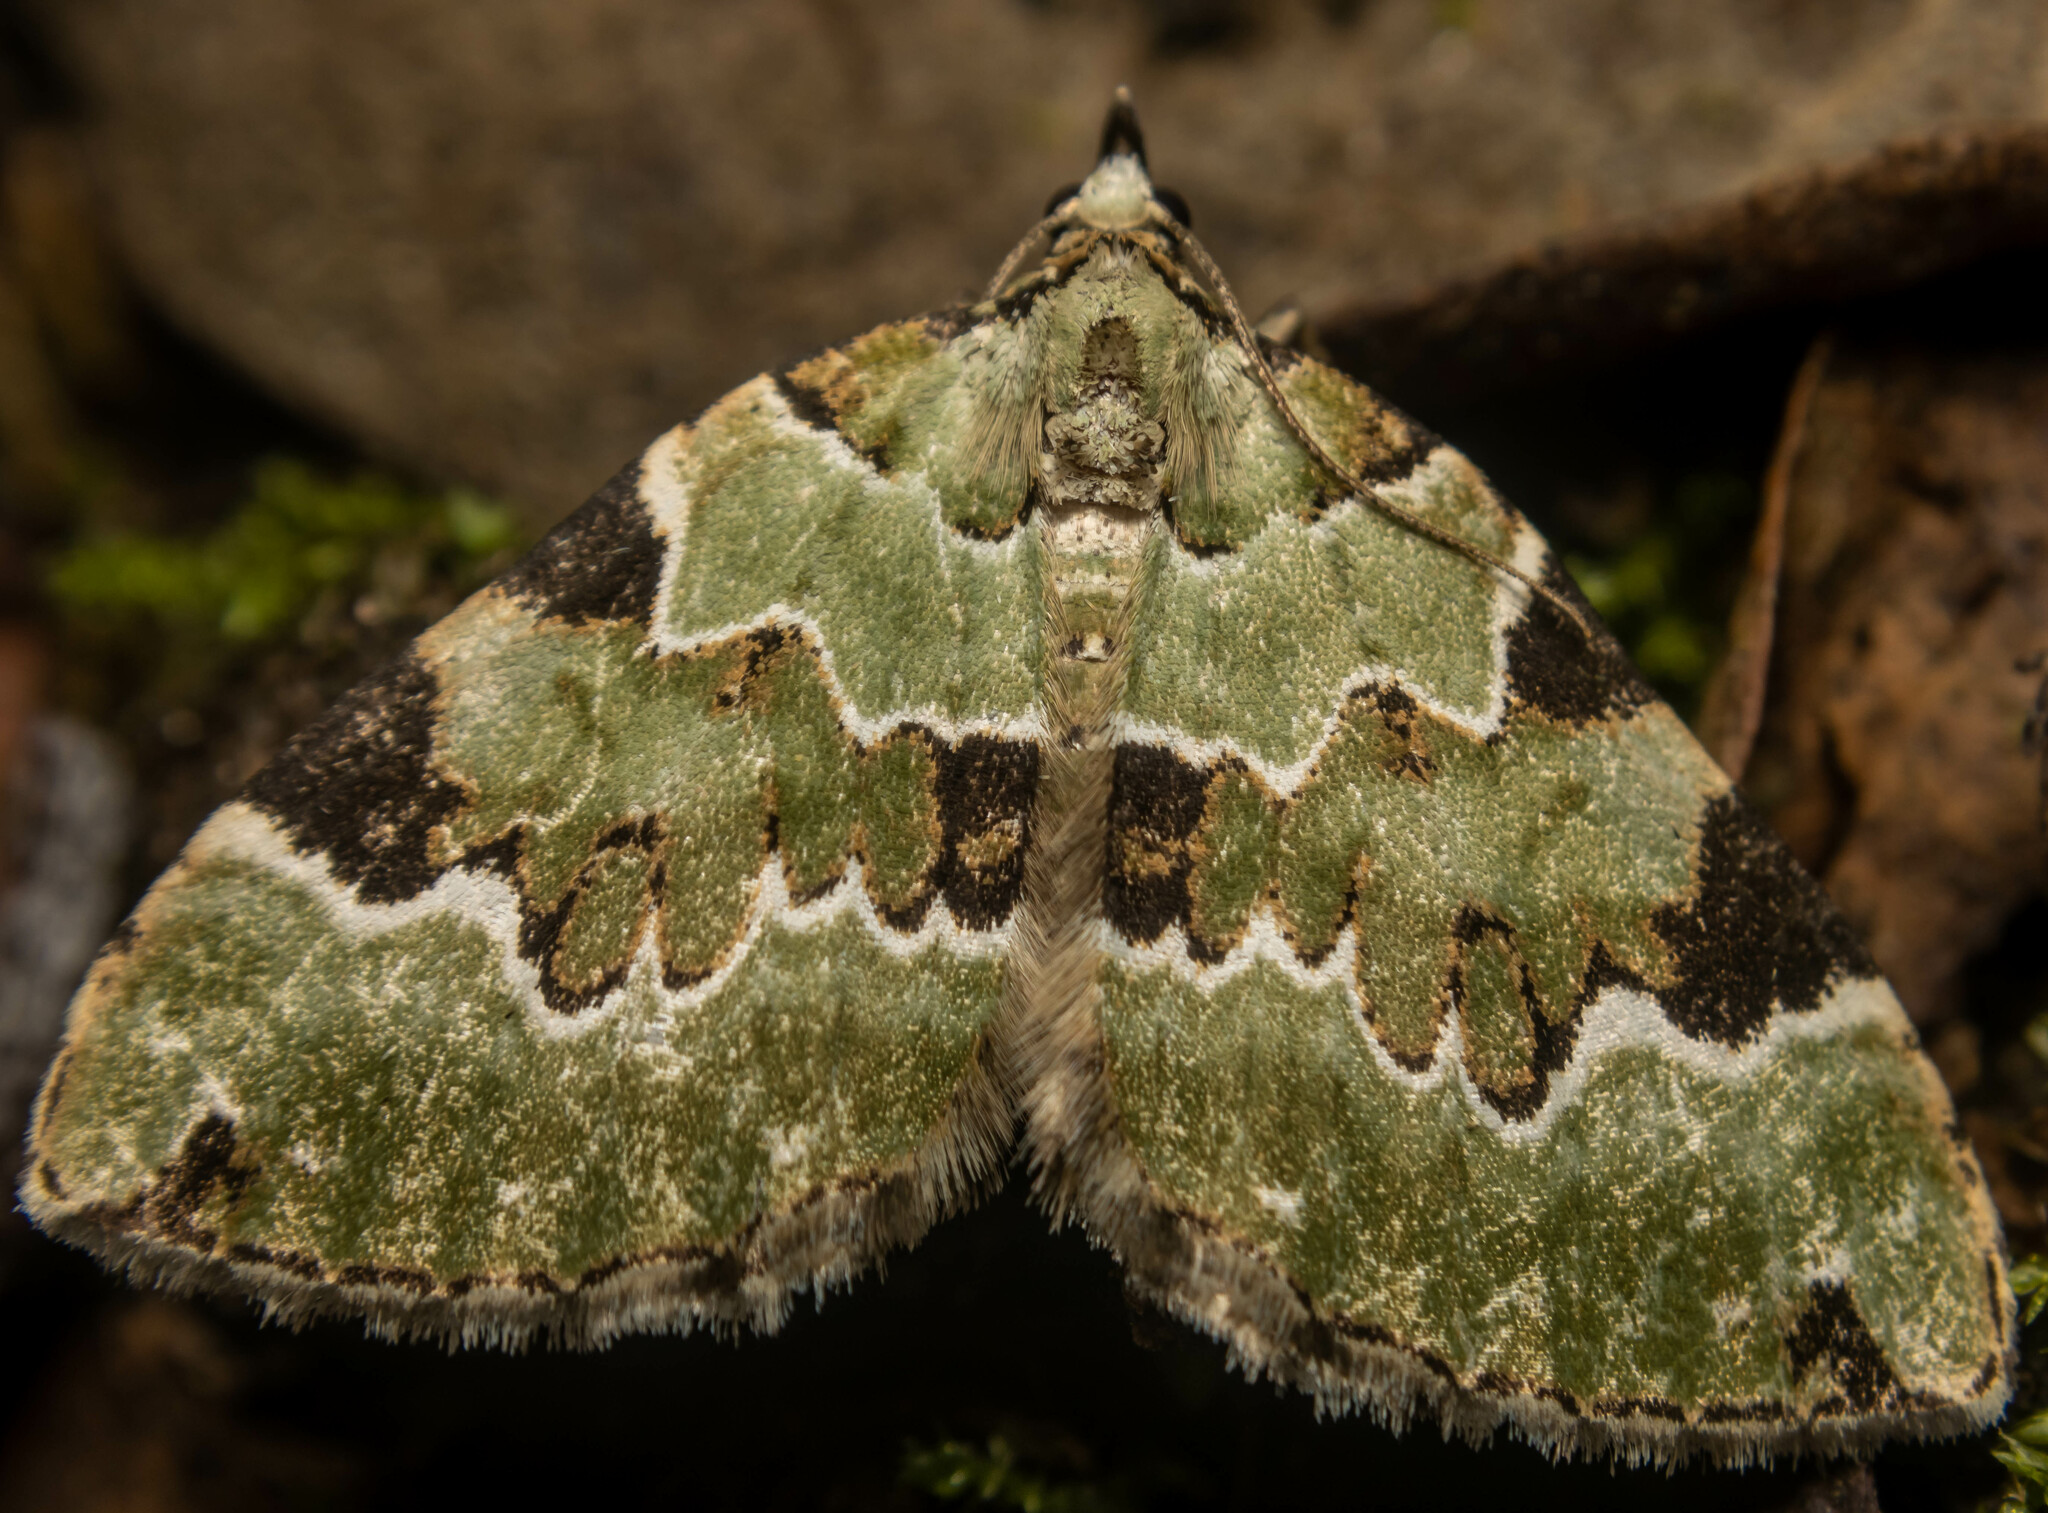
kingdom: Animalia
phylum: Arthropoda
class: Insecta
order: Lepidoptera
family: Geometridae
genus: Colostygia
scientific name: Colostygia pectinataria
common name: Green carpet
